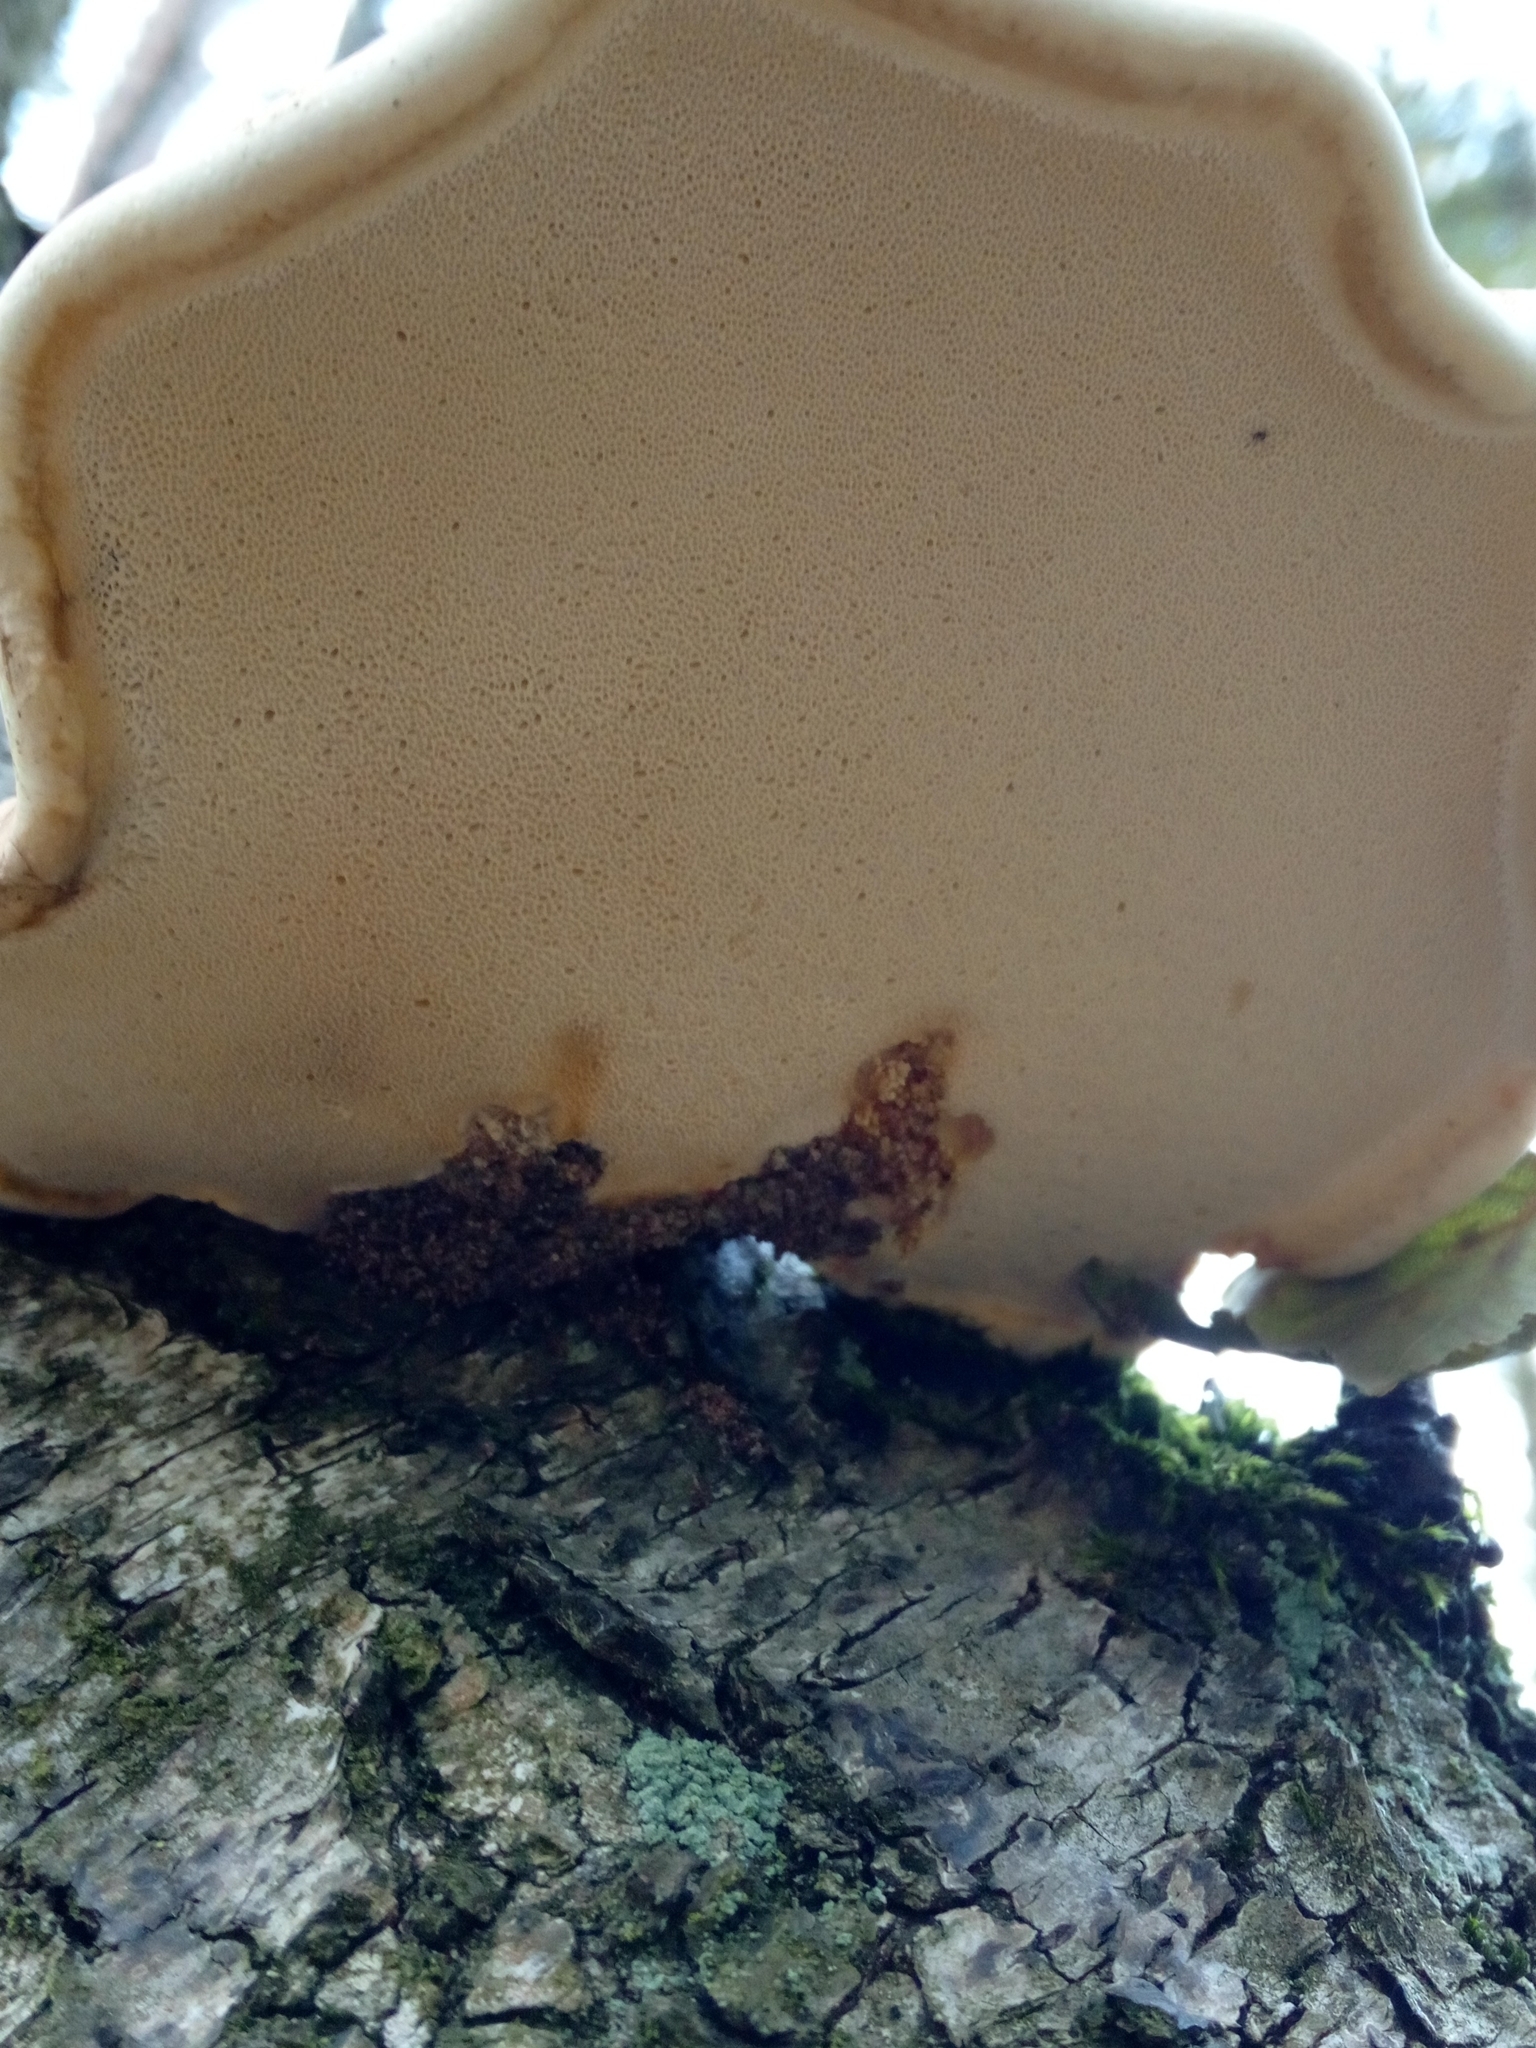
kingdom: Fungi
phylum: Basidiomycota
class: Agaricomycetes
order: Polyporales
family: Fomitopsidaceae
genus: Fomitopsis
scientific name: Fomitopsis betulina
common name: Birch polypore
